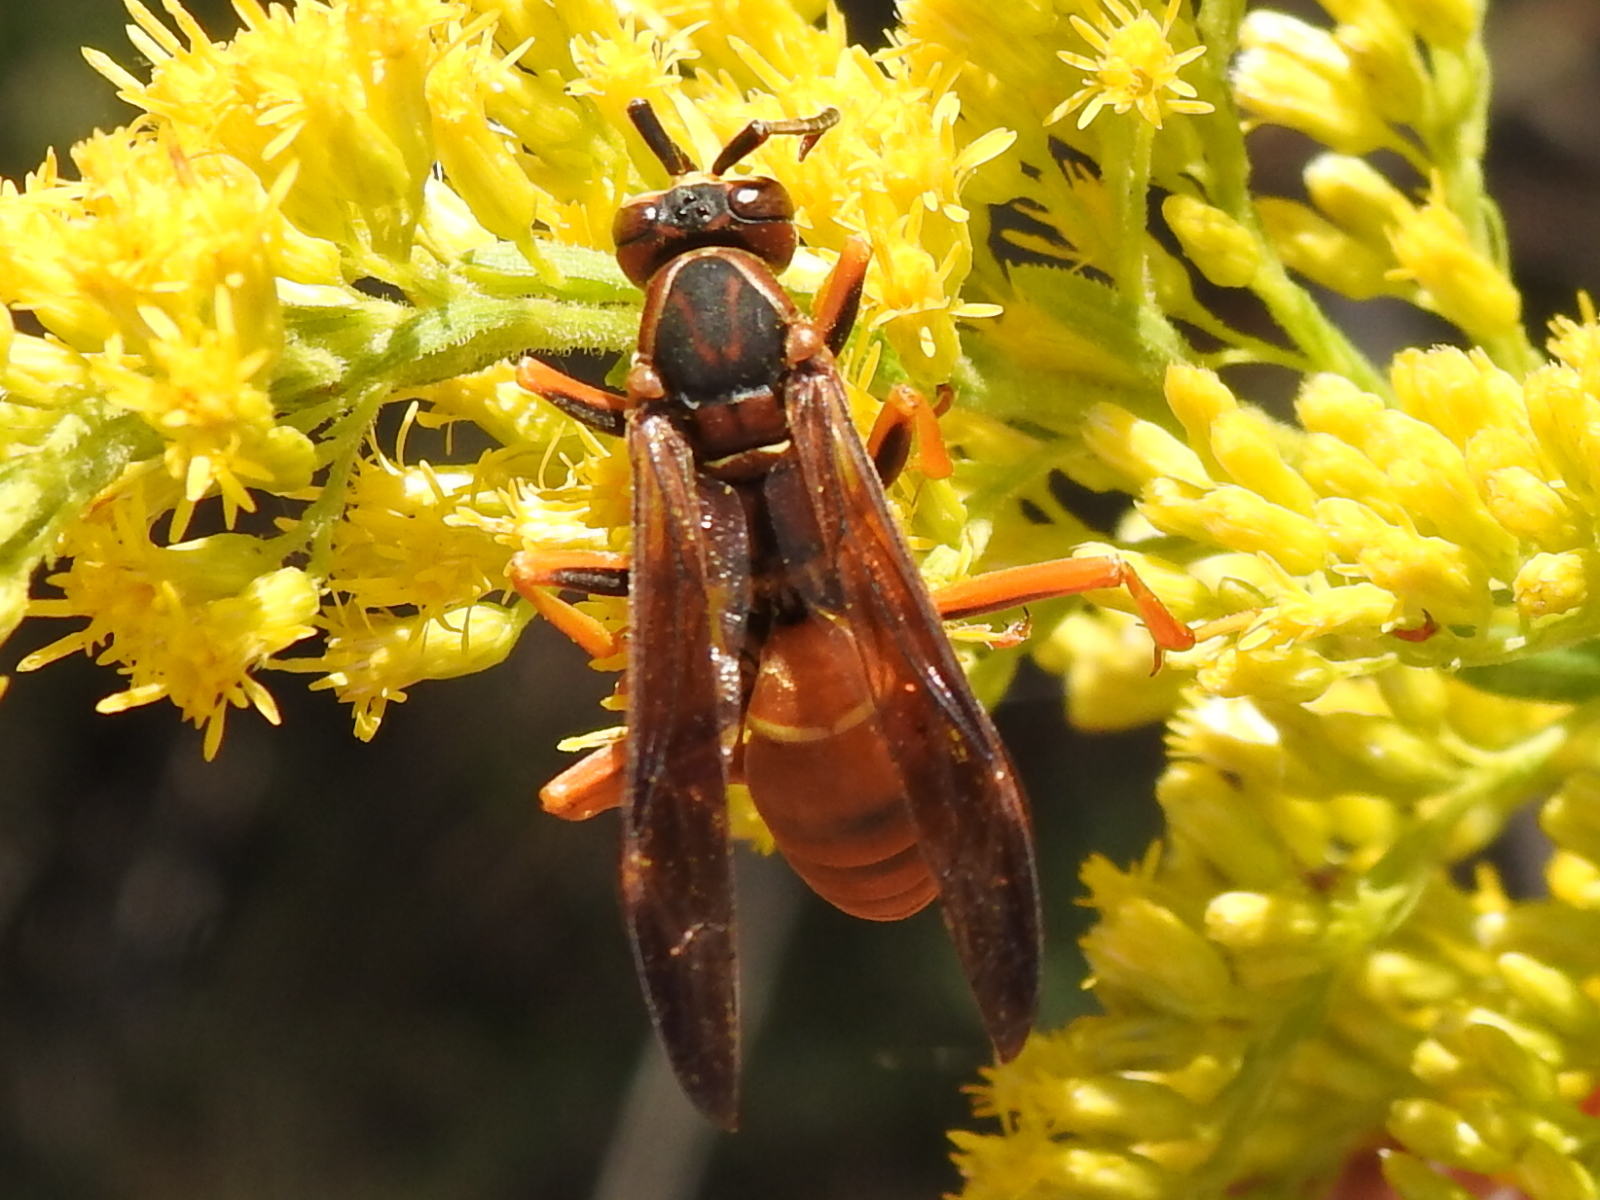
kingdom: Animalia
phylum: Arthropoda
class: Insecta
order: Hymenoptera
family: Eumenidae
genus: Polistes
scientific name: Polistes carolina
